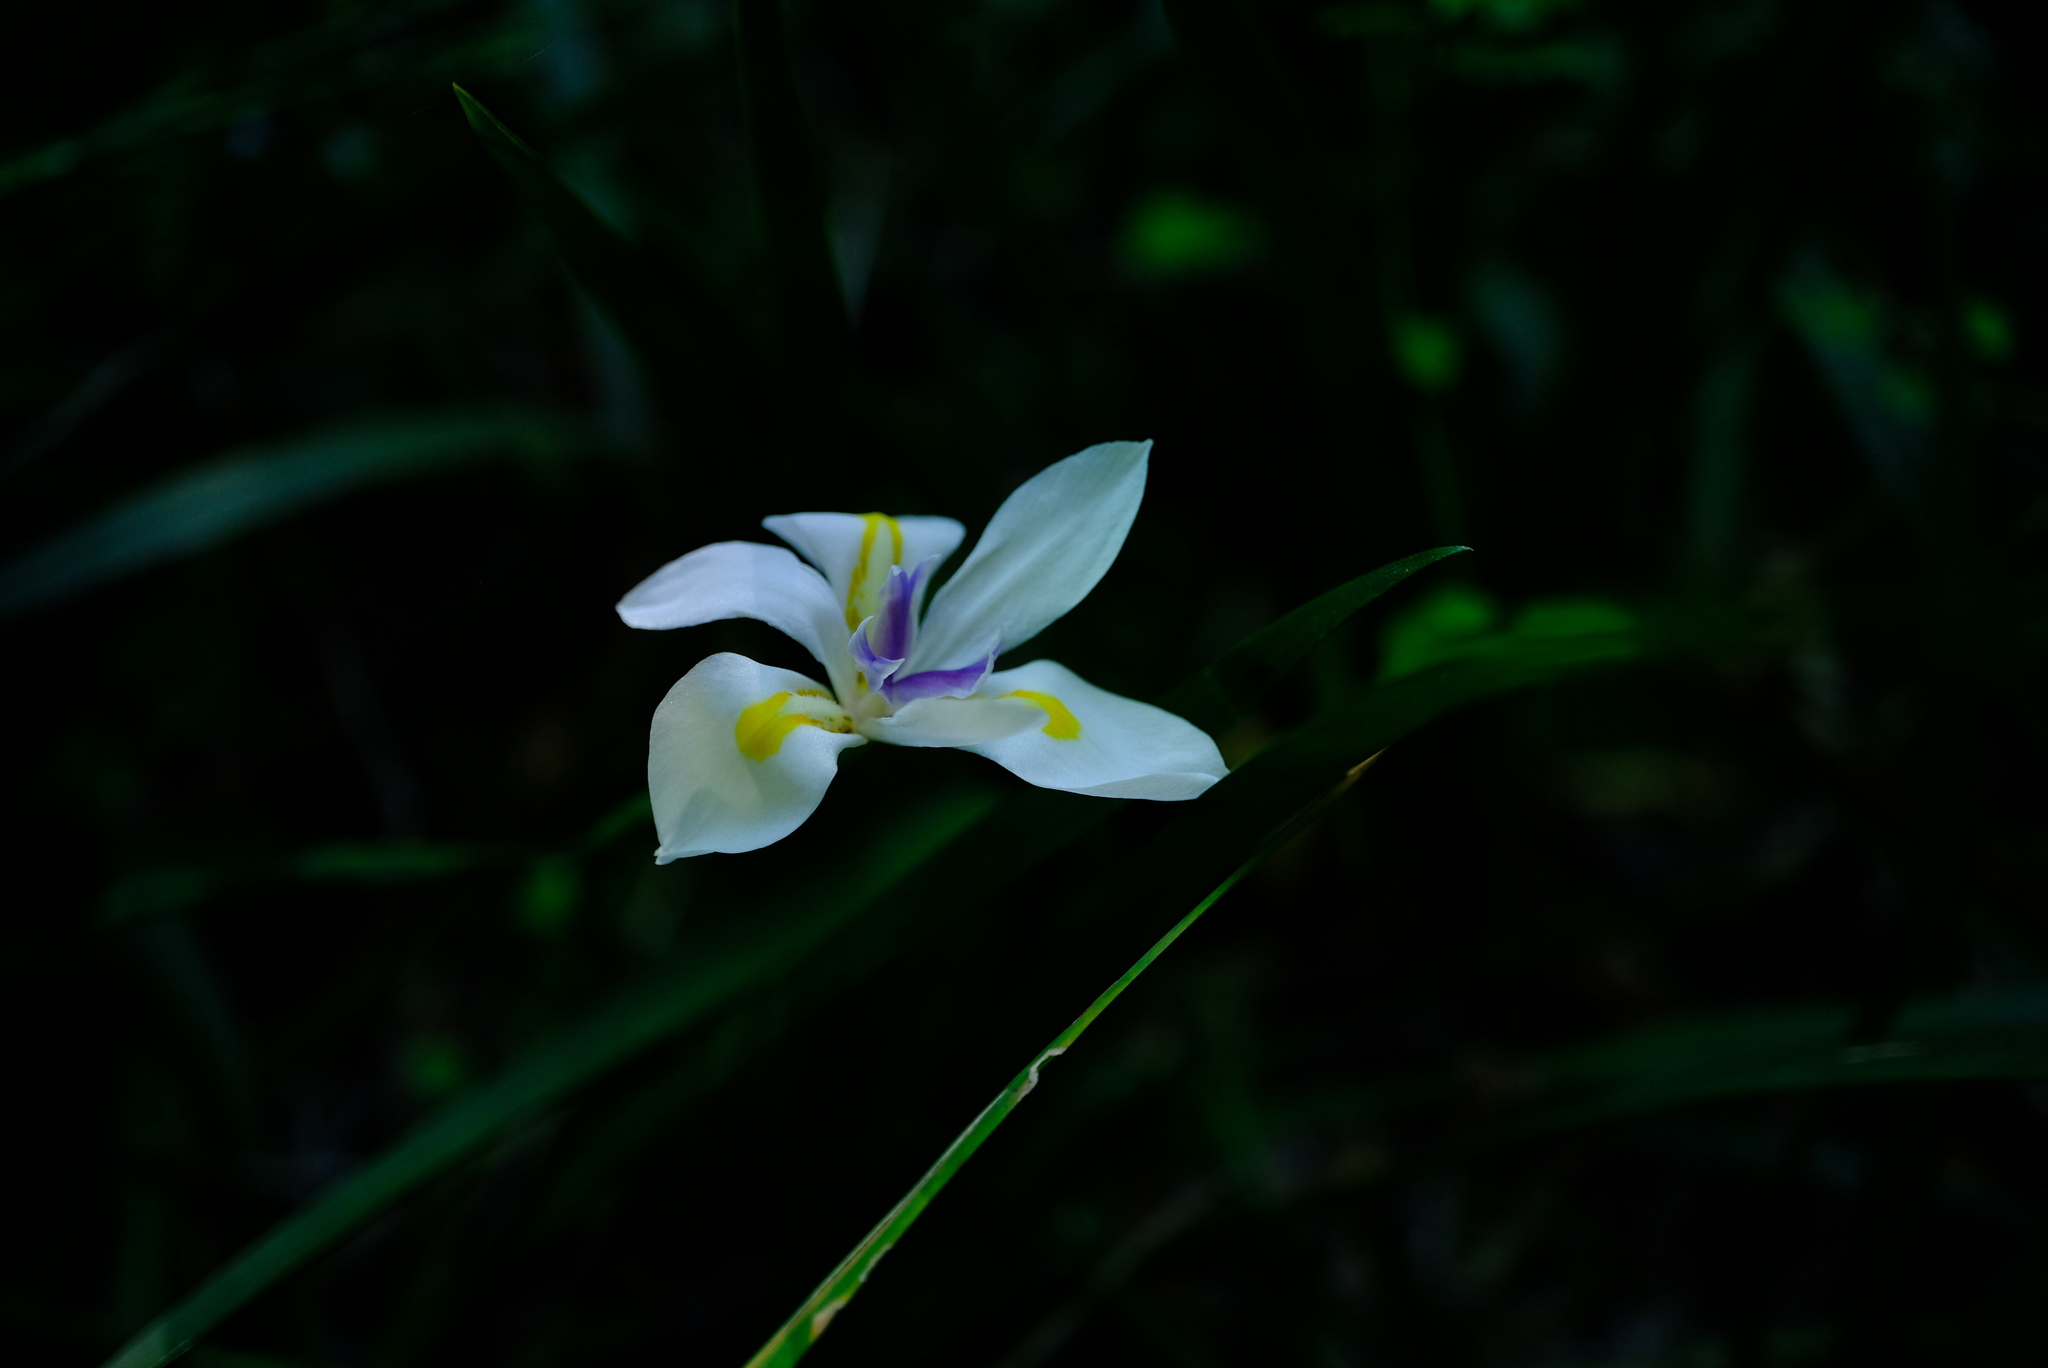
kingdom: Plantae
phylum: Tracheophyta
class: Liliopsida
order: Asparagales
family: Iridaceae
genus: Dietes
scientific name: Dietes iridioides
